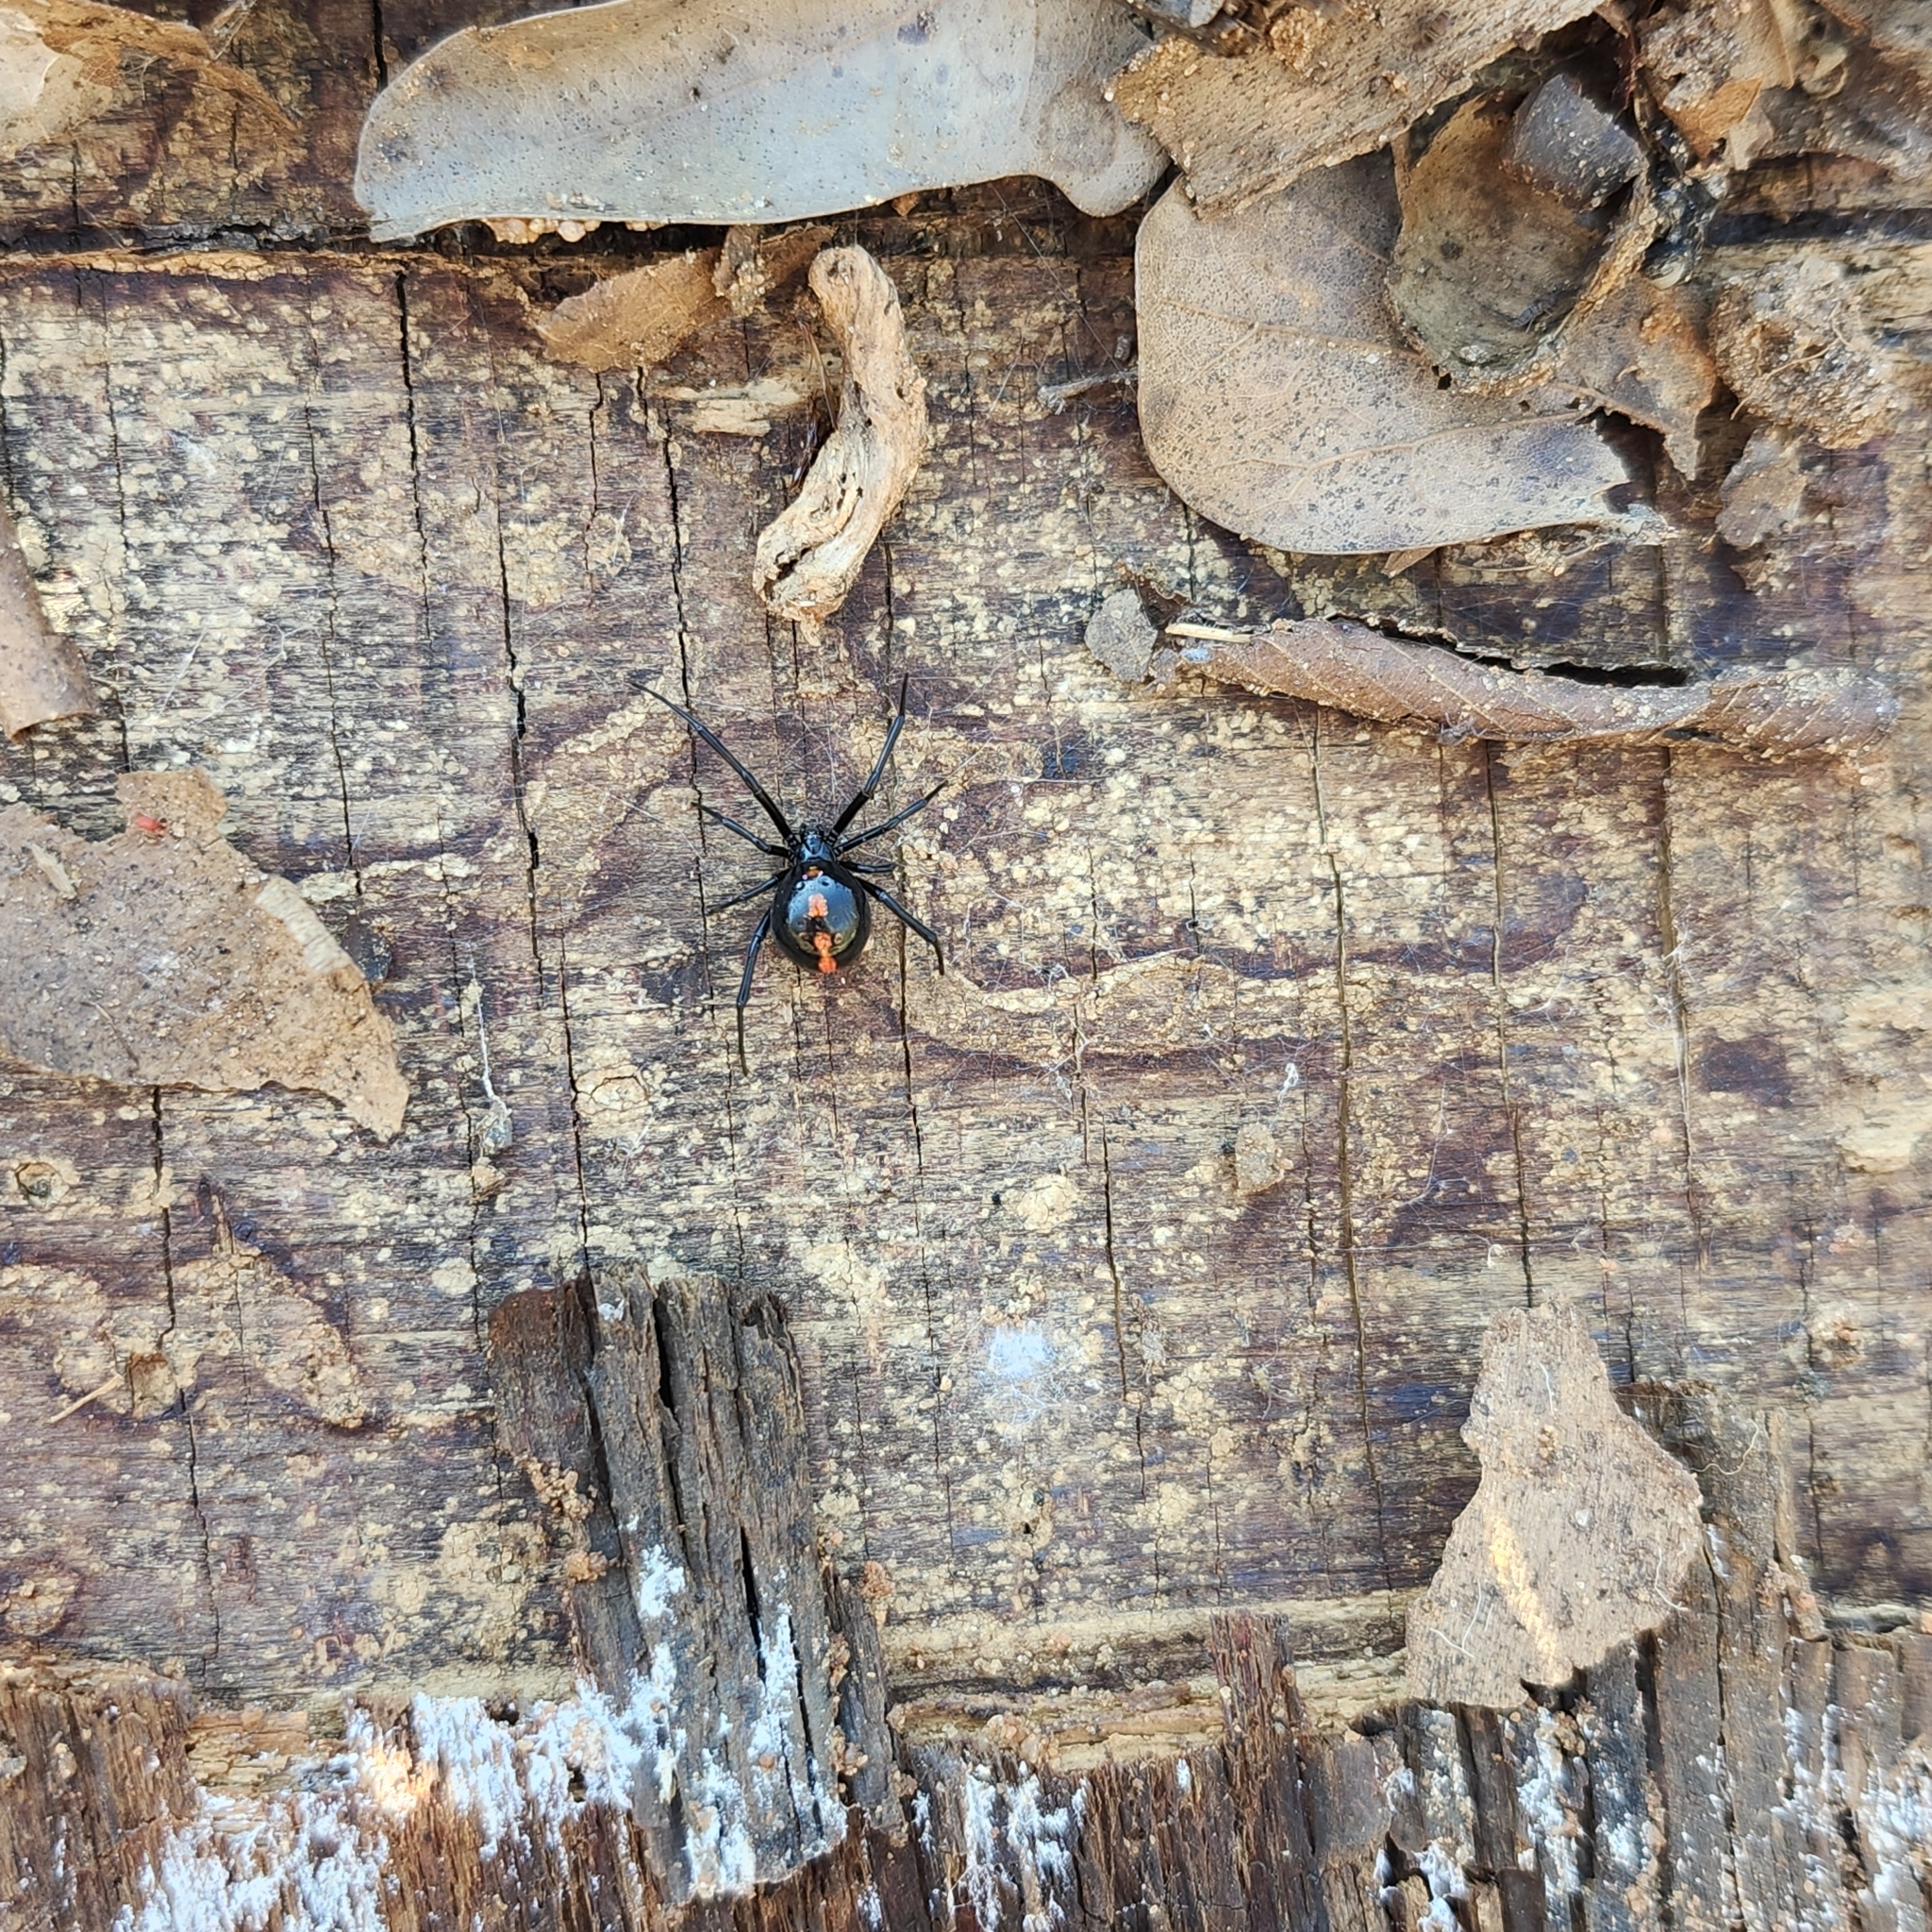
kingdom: Animalia
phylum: Arthropoda
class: Arachnida
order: Araneae
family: Theridiidae
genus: Latrodectus
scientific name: Latrodectus mactans
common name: Cobweb spiders
